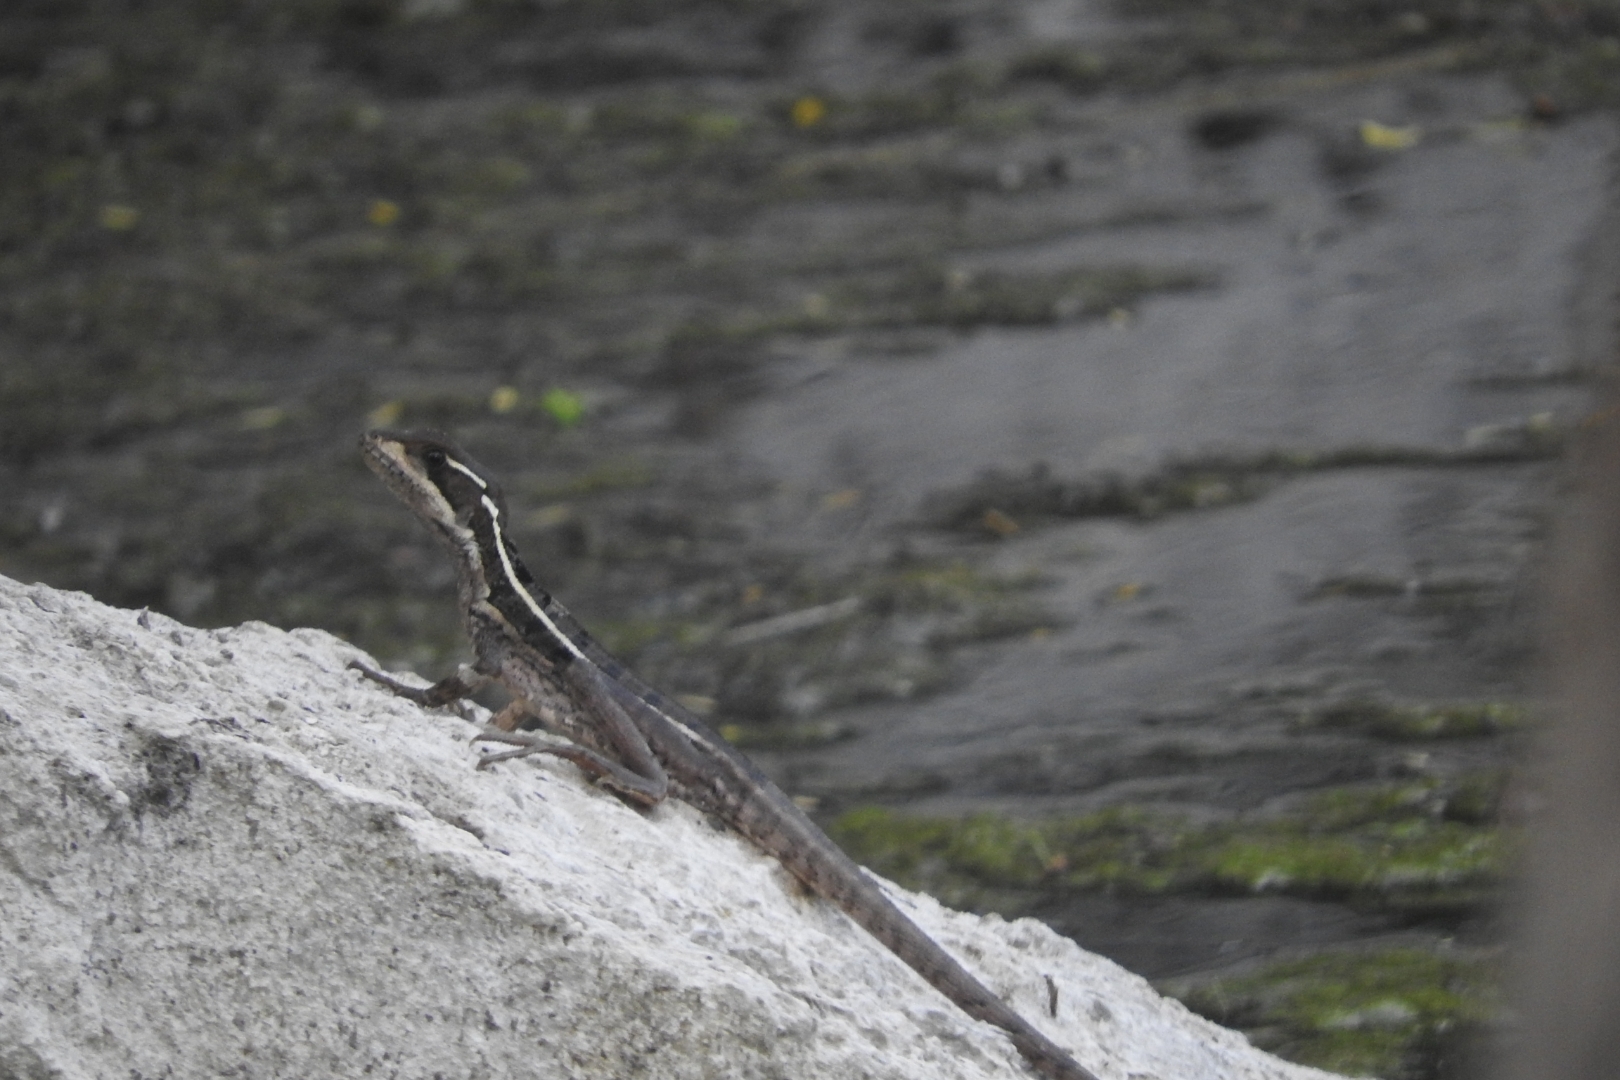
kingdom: Animalia
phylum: Chordata
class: Squamata
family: Corytophanidae
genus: Basiliscus
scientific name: Basiliscus vittatus
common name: Brown basilisk
